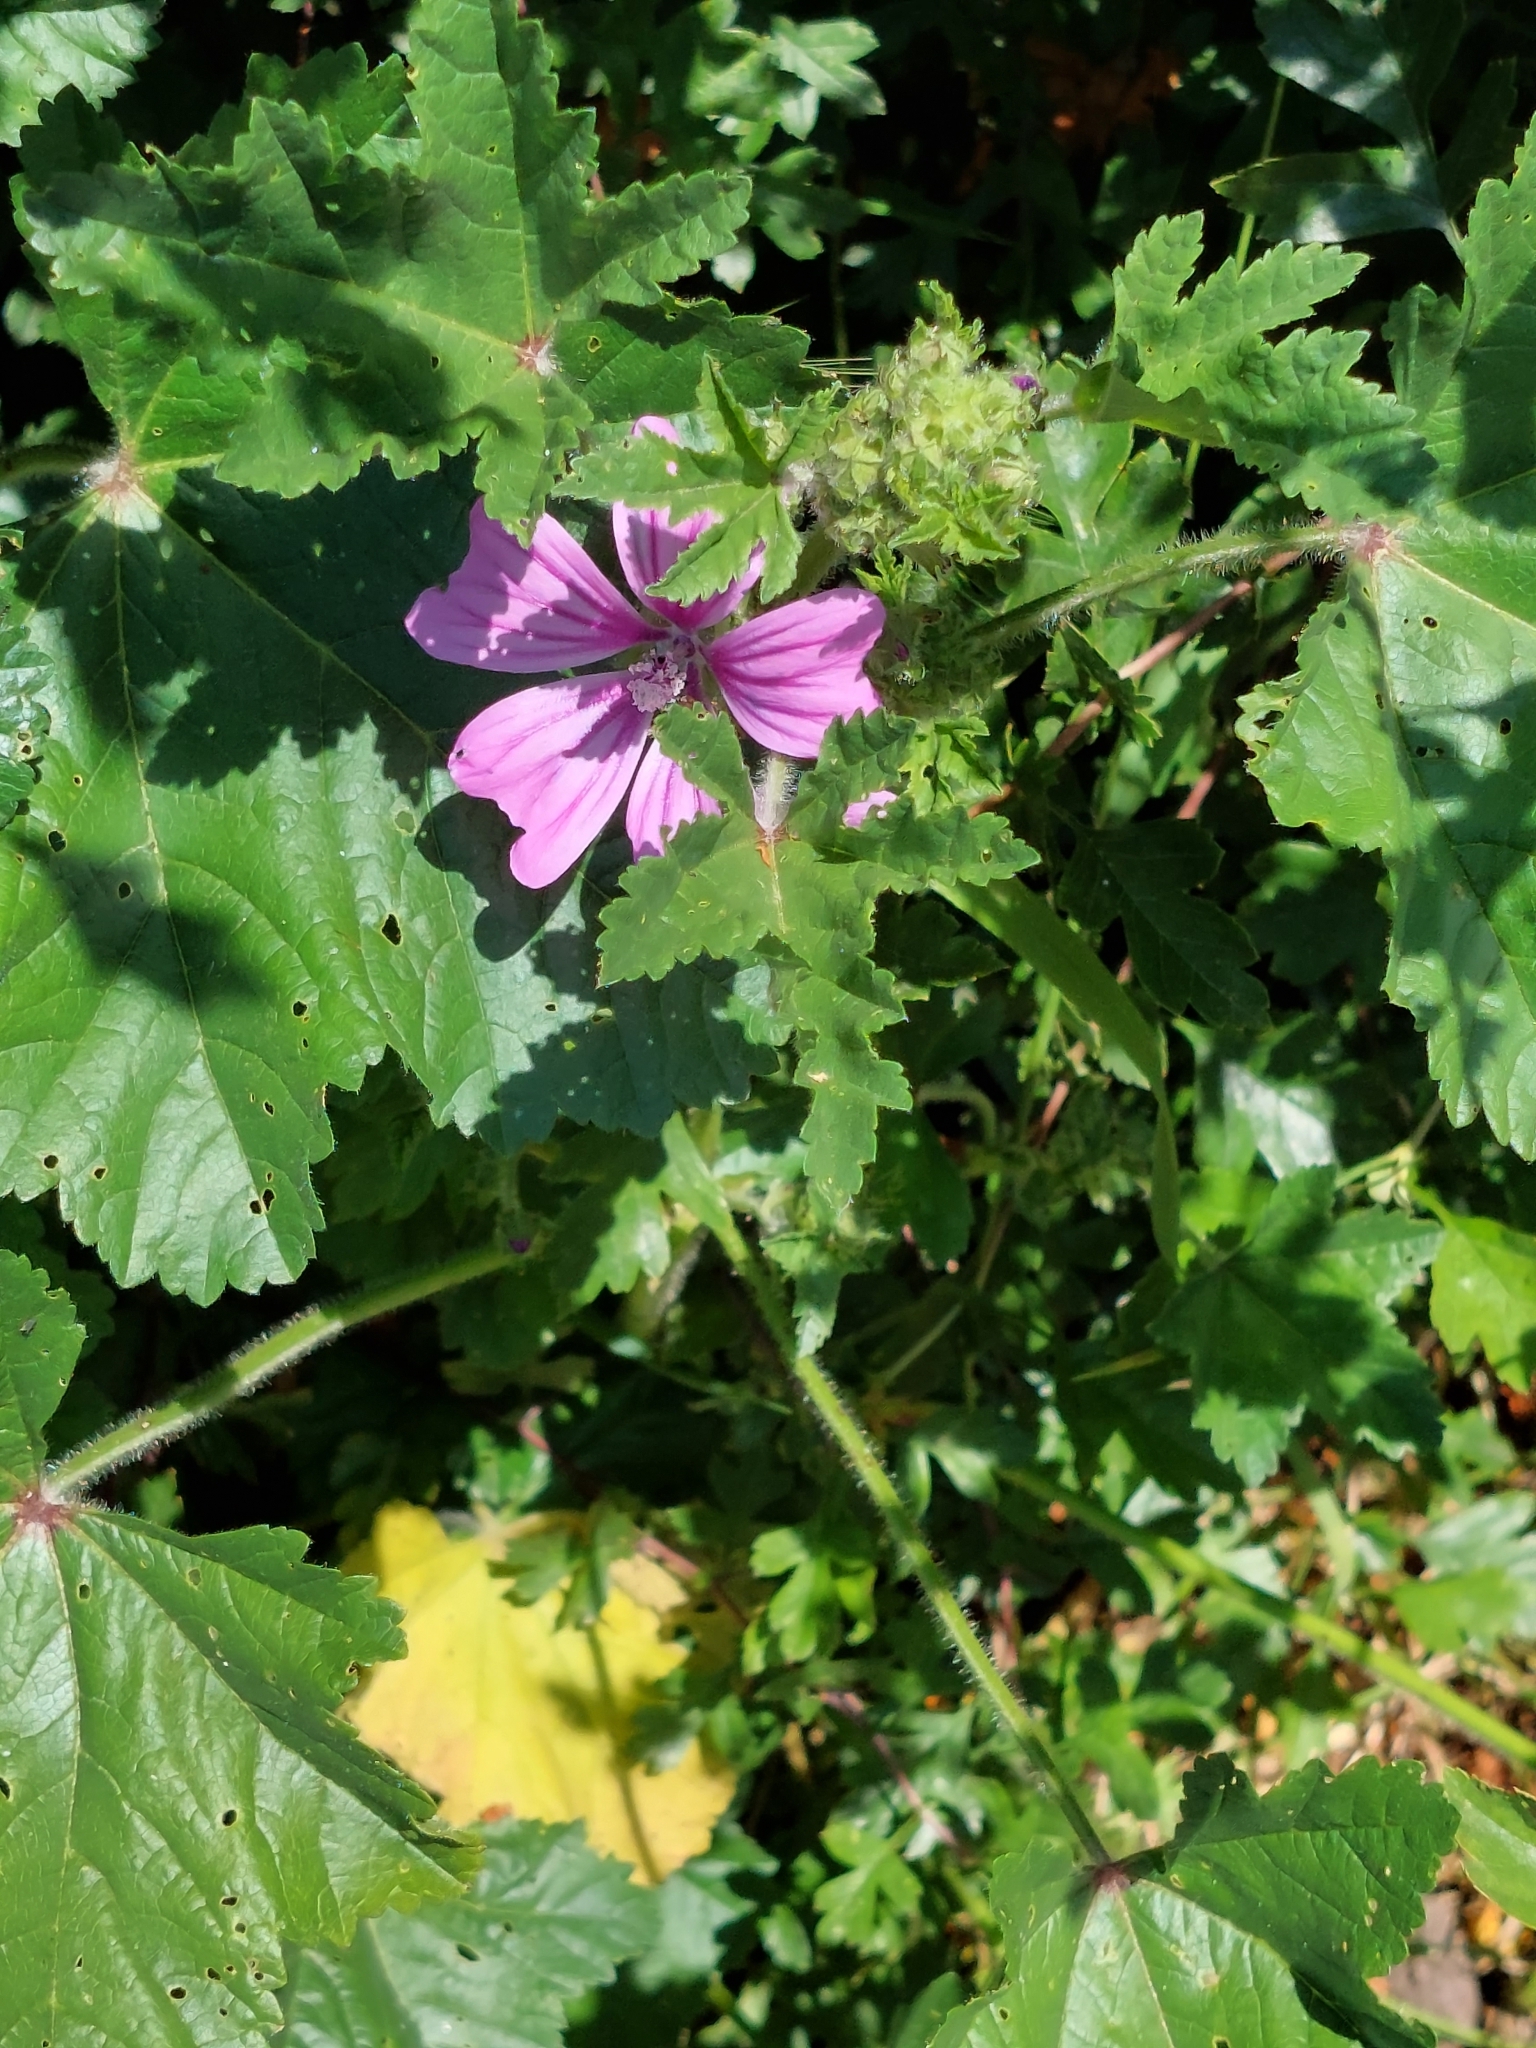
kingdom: Plantae
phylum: Tracheophyta
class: Magnoliopsida
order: Malvales
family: Malvaceae
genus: Malva
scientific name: Malva sylvestris
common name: Common mallow
